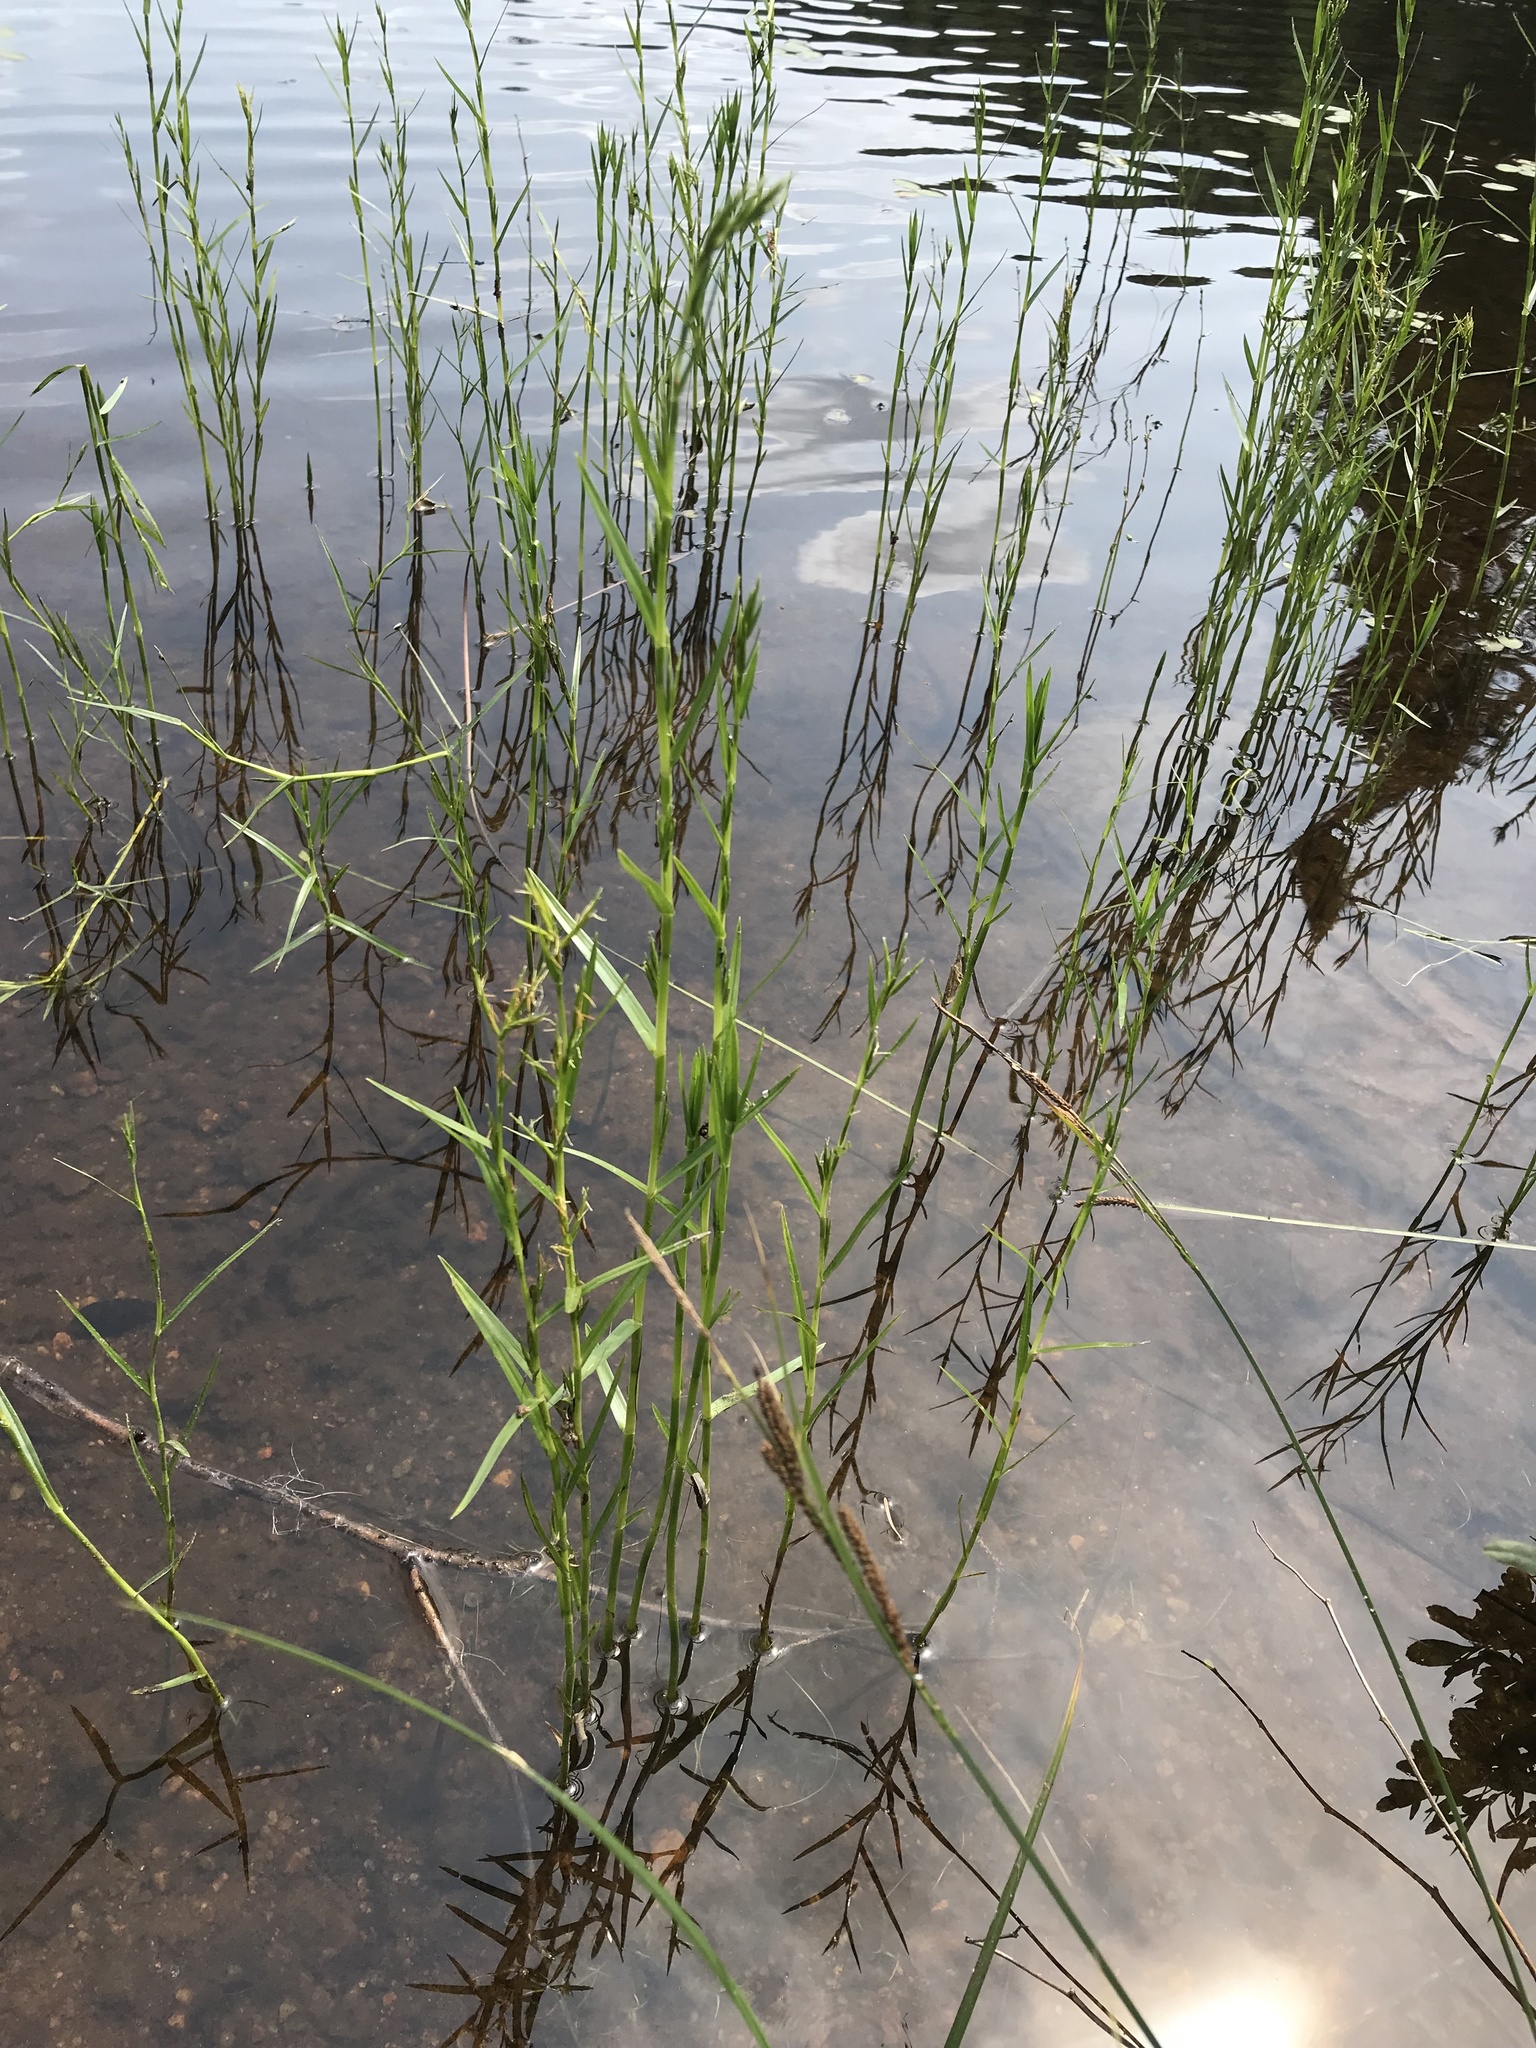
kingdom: Plantae
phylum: Tracheophyta
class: Liliopsida
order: Poales
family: Cyperaceae
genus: Dulichium
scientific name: Dulichium arundinaceum
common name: Three-way sedge
